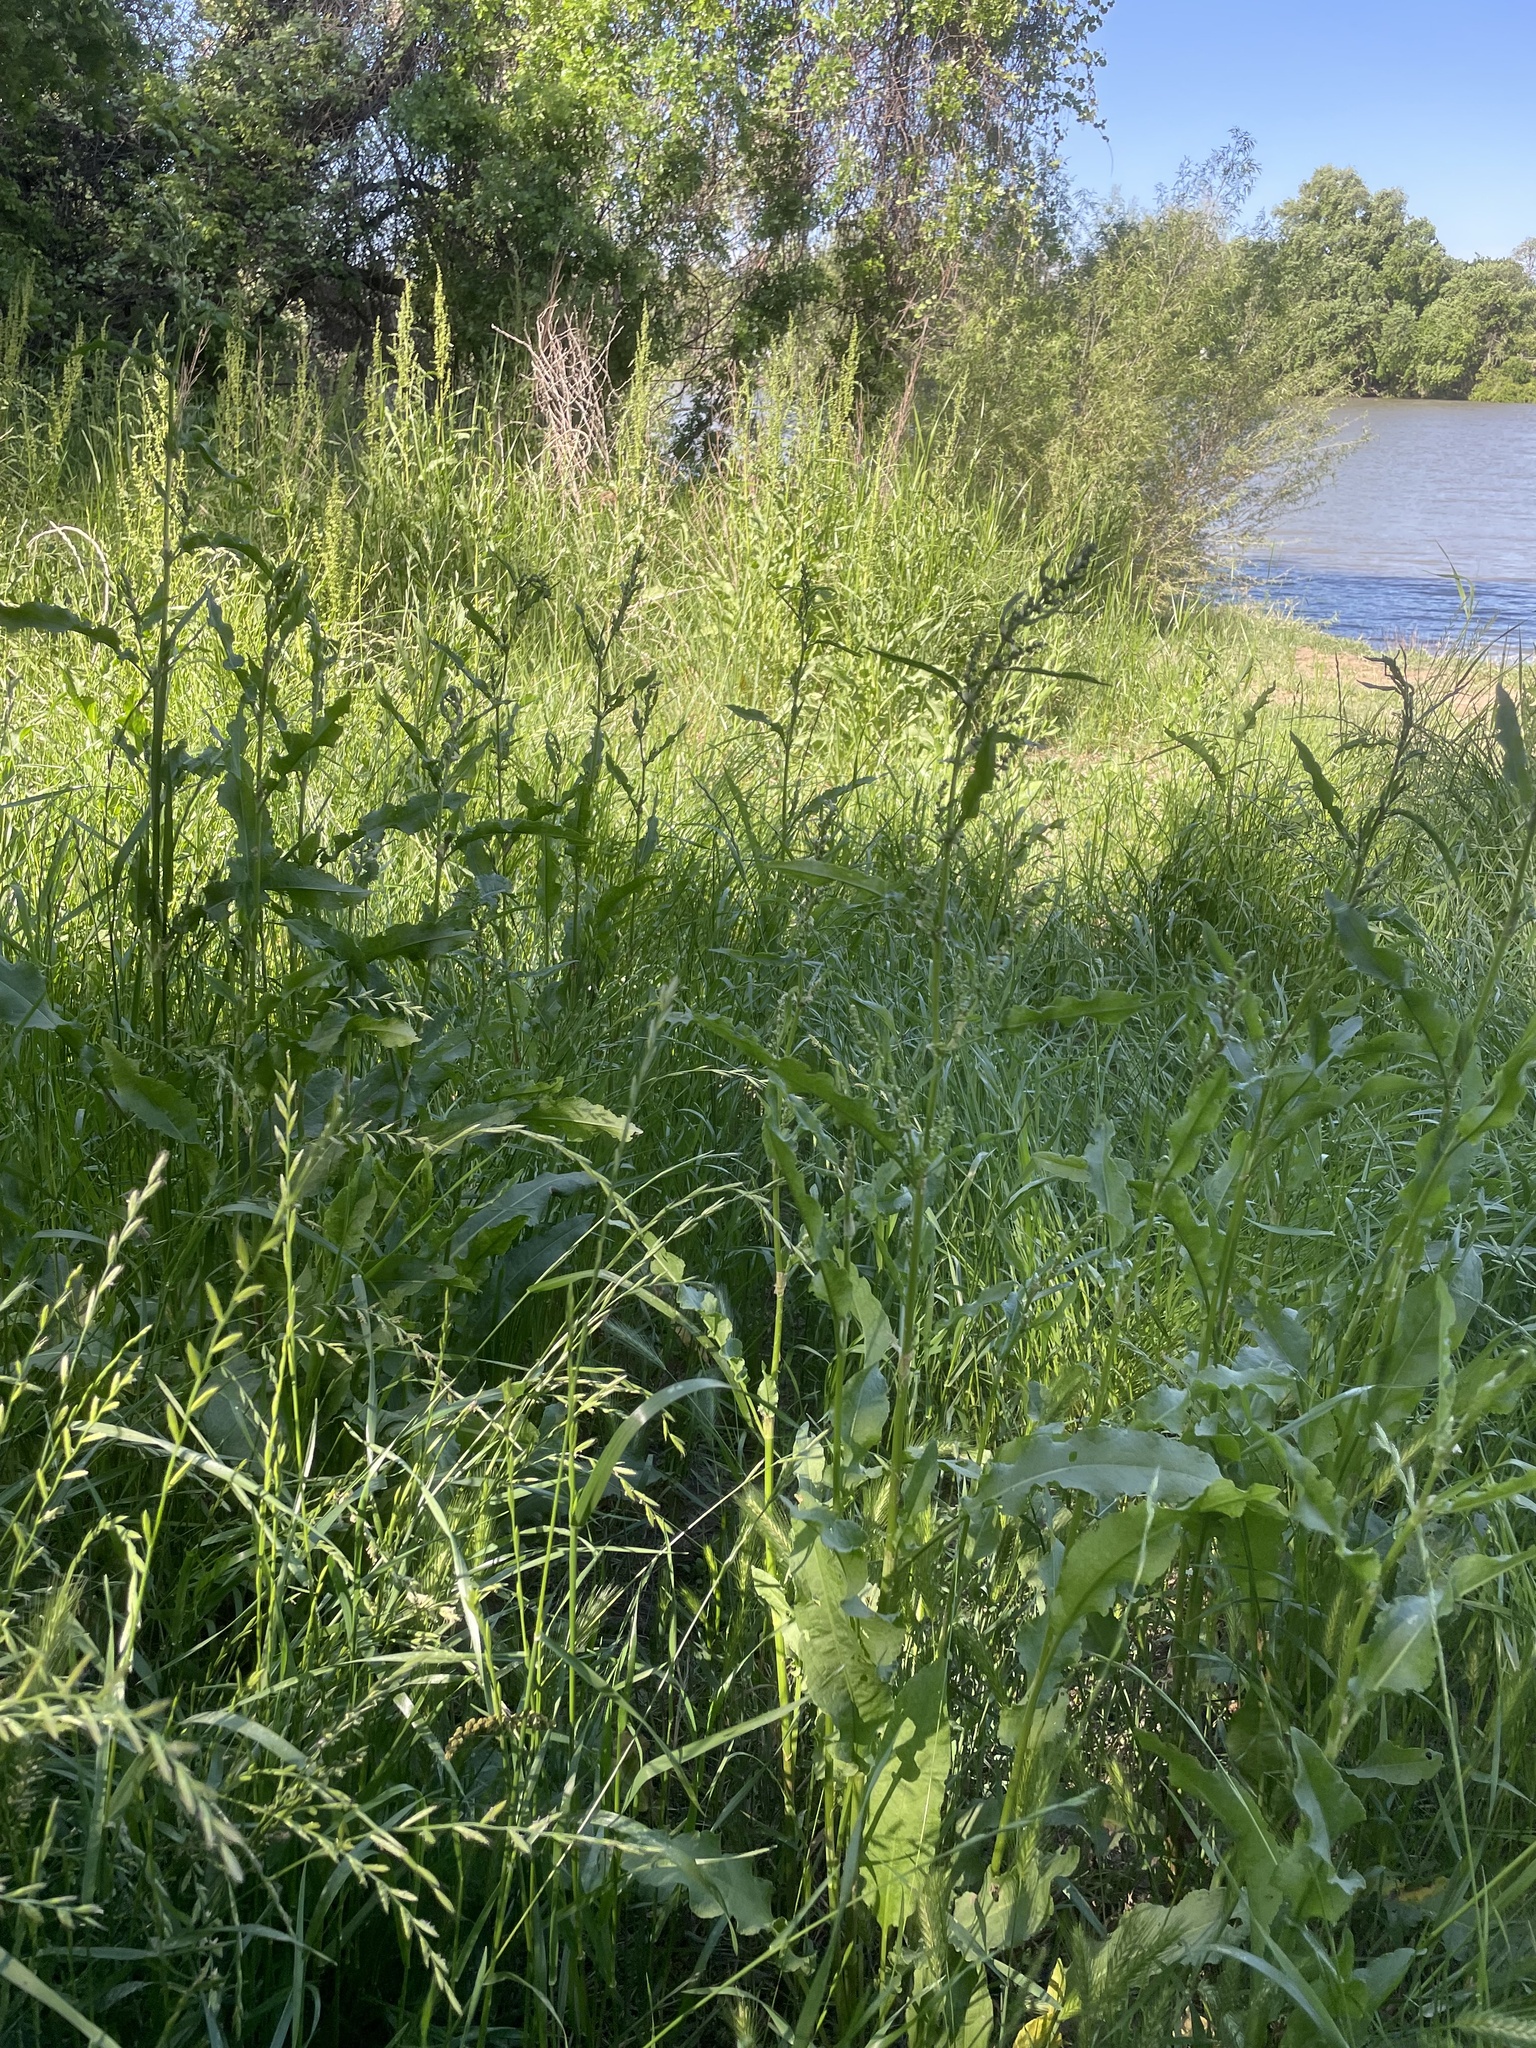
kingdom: Plantae
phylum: Tracheophyta
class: Magnoliopsida
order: Caryophyllales
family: Polygonaceae
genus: Rumex
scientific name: Rumex crispus
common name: Curled dock
